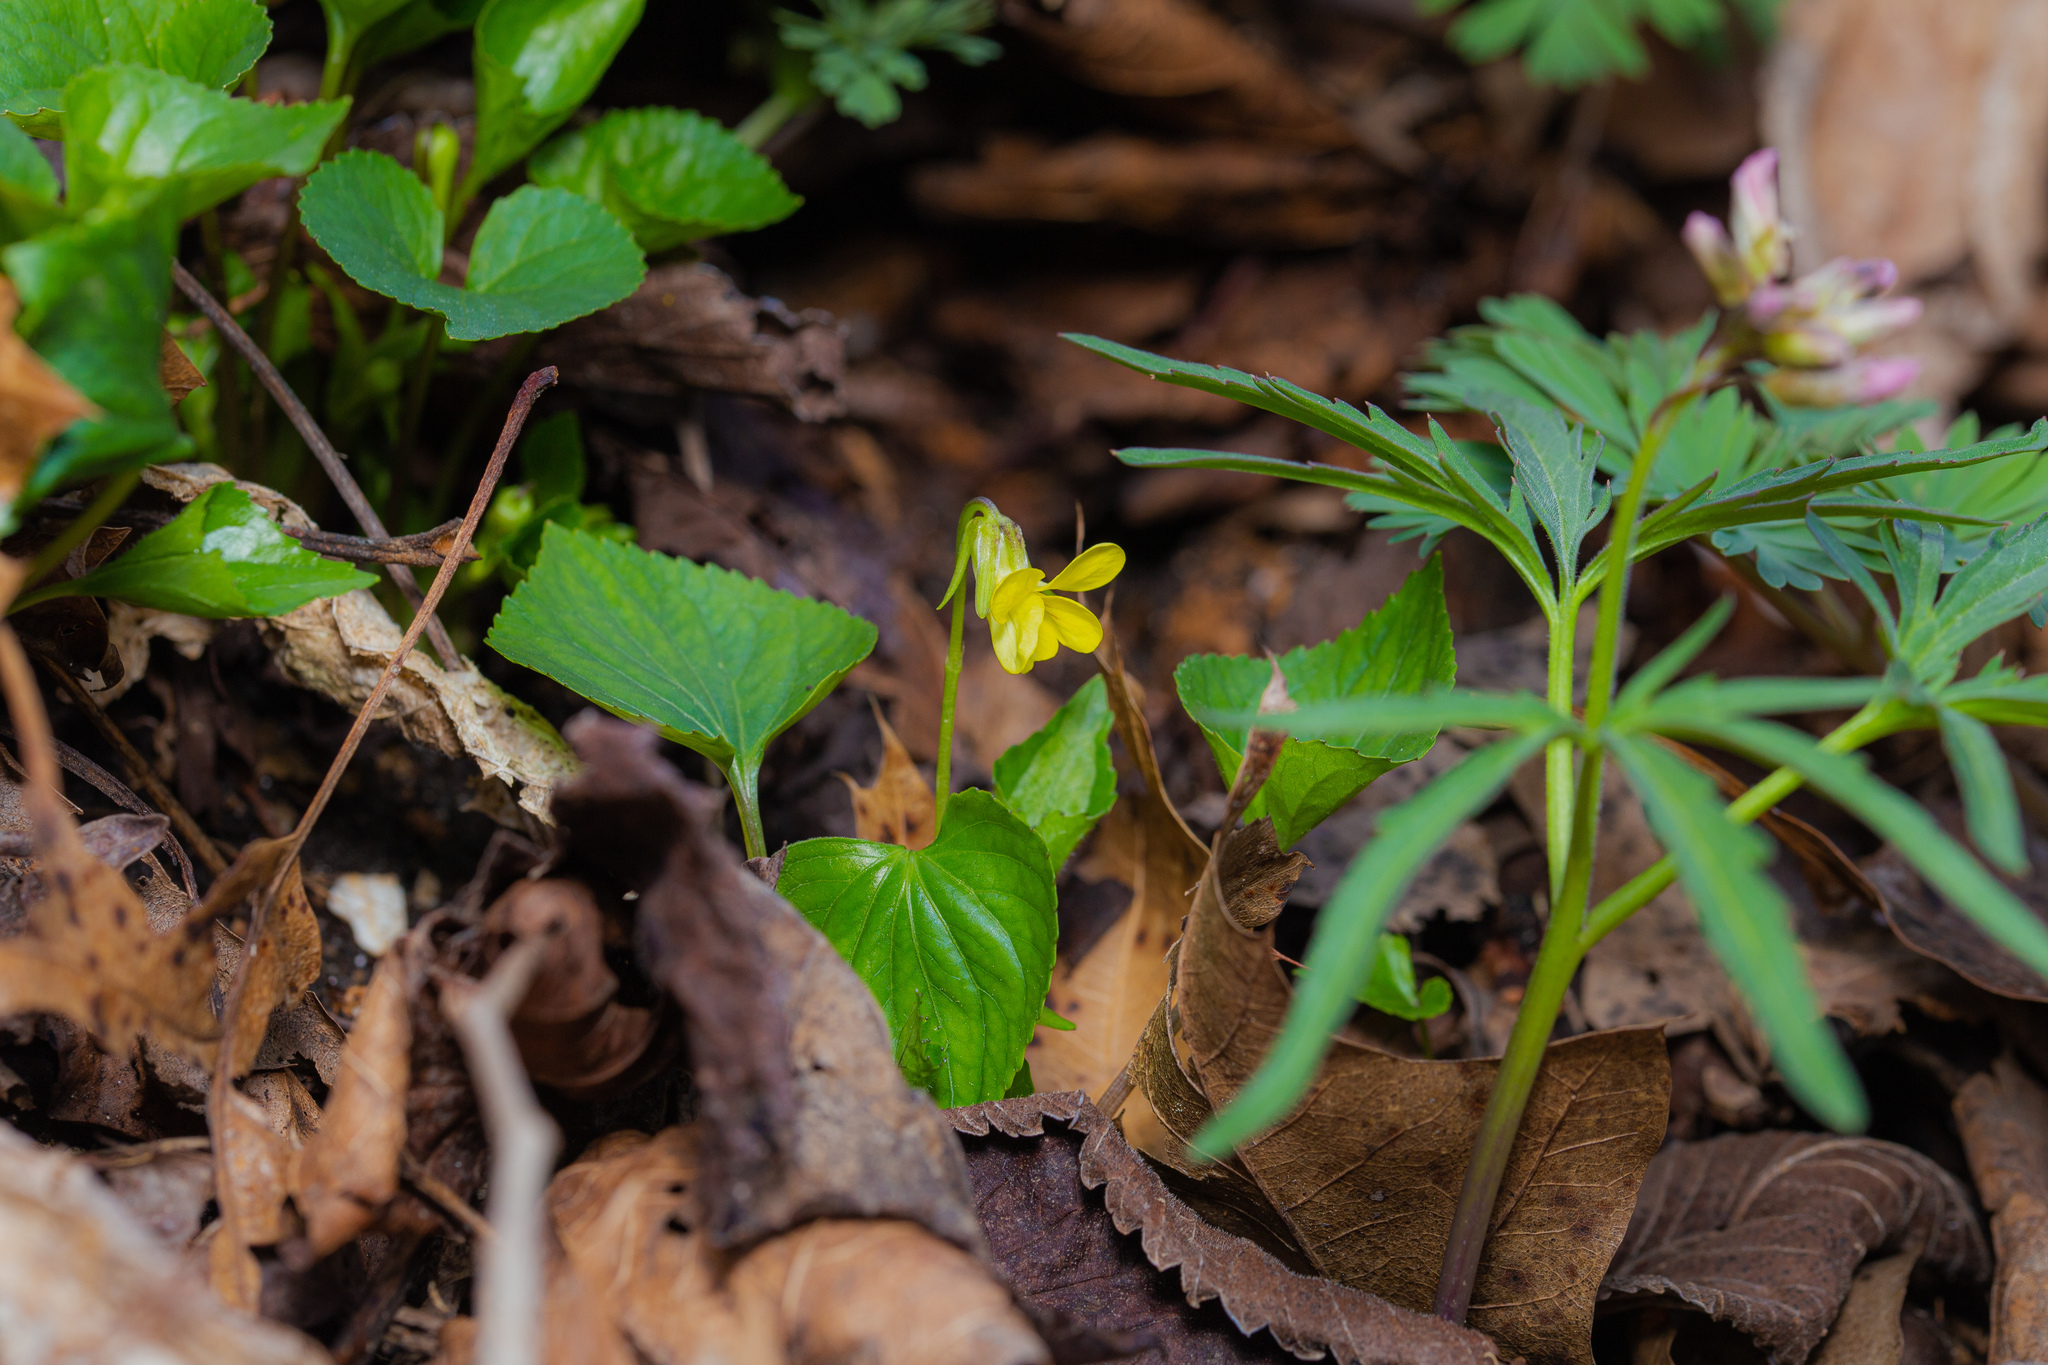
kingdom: Plantae
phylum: Tracheophyta
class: Magnoliopsida
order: Malpighiales
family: Violaceae
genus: Viola
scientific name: Viola eriocarpa
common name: Smooth yellow violet
